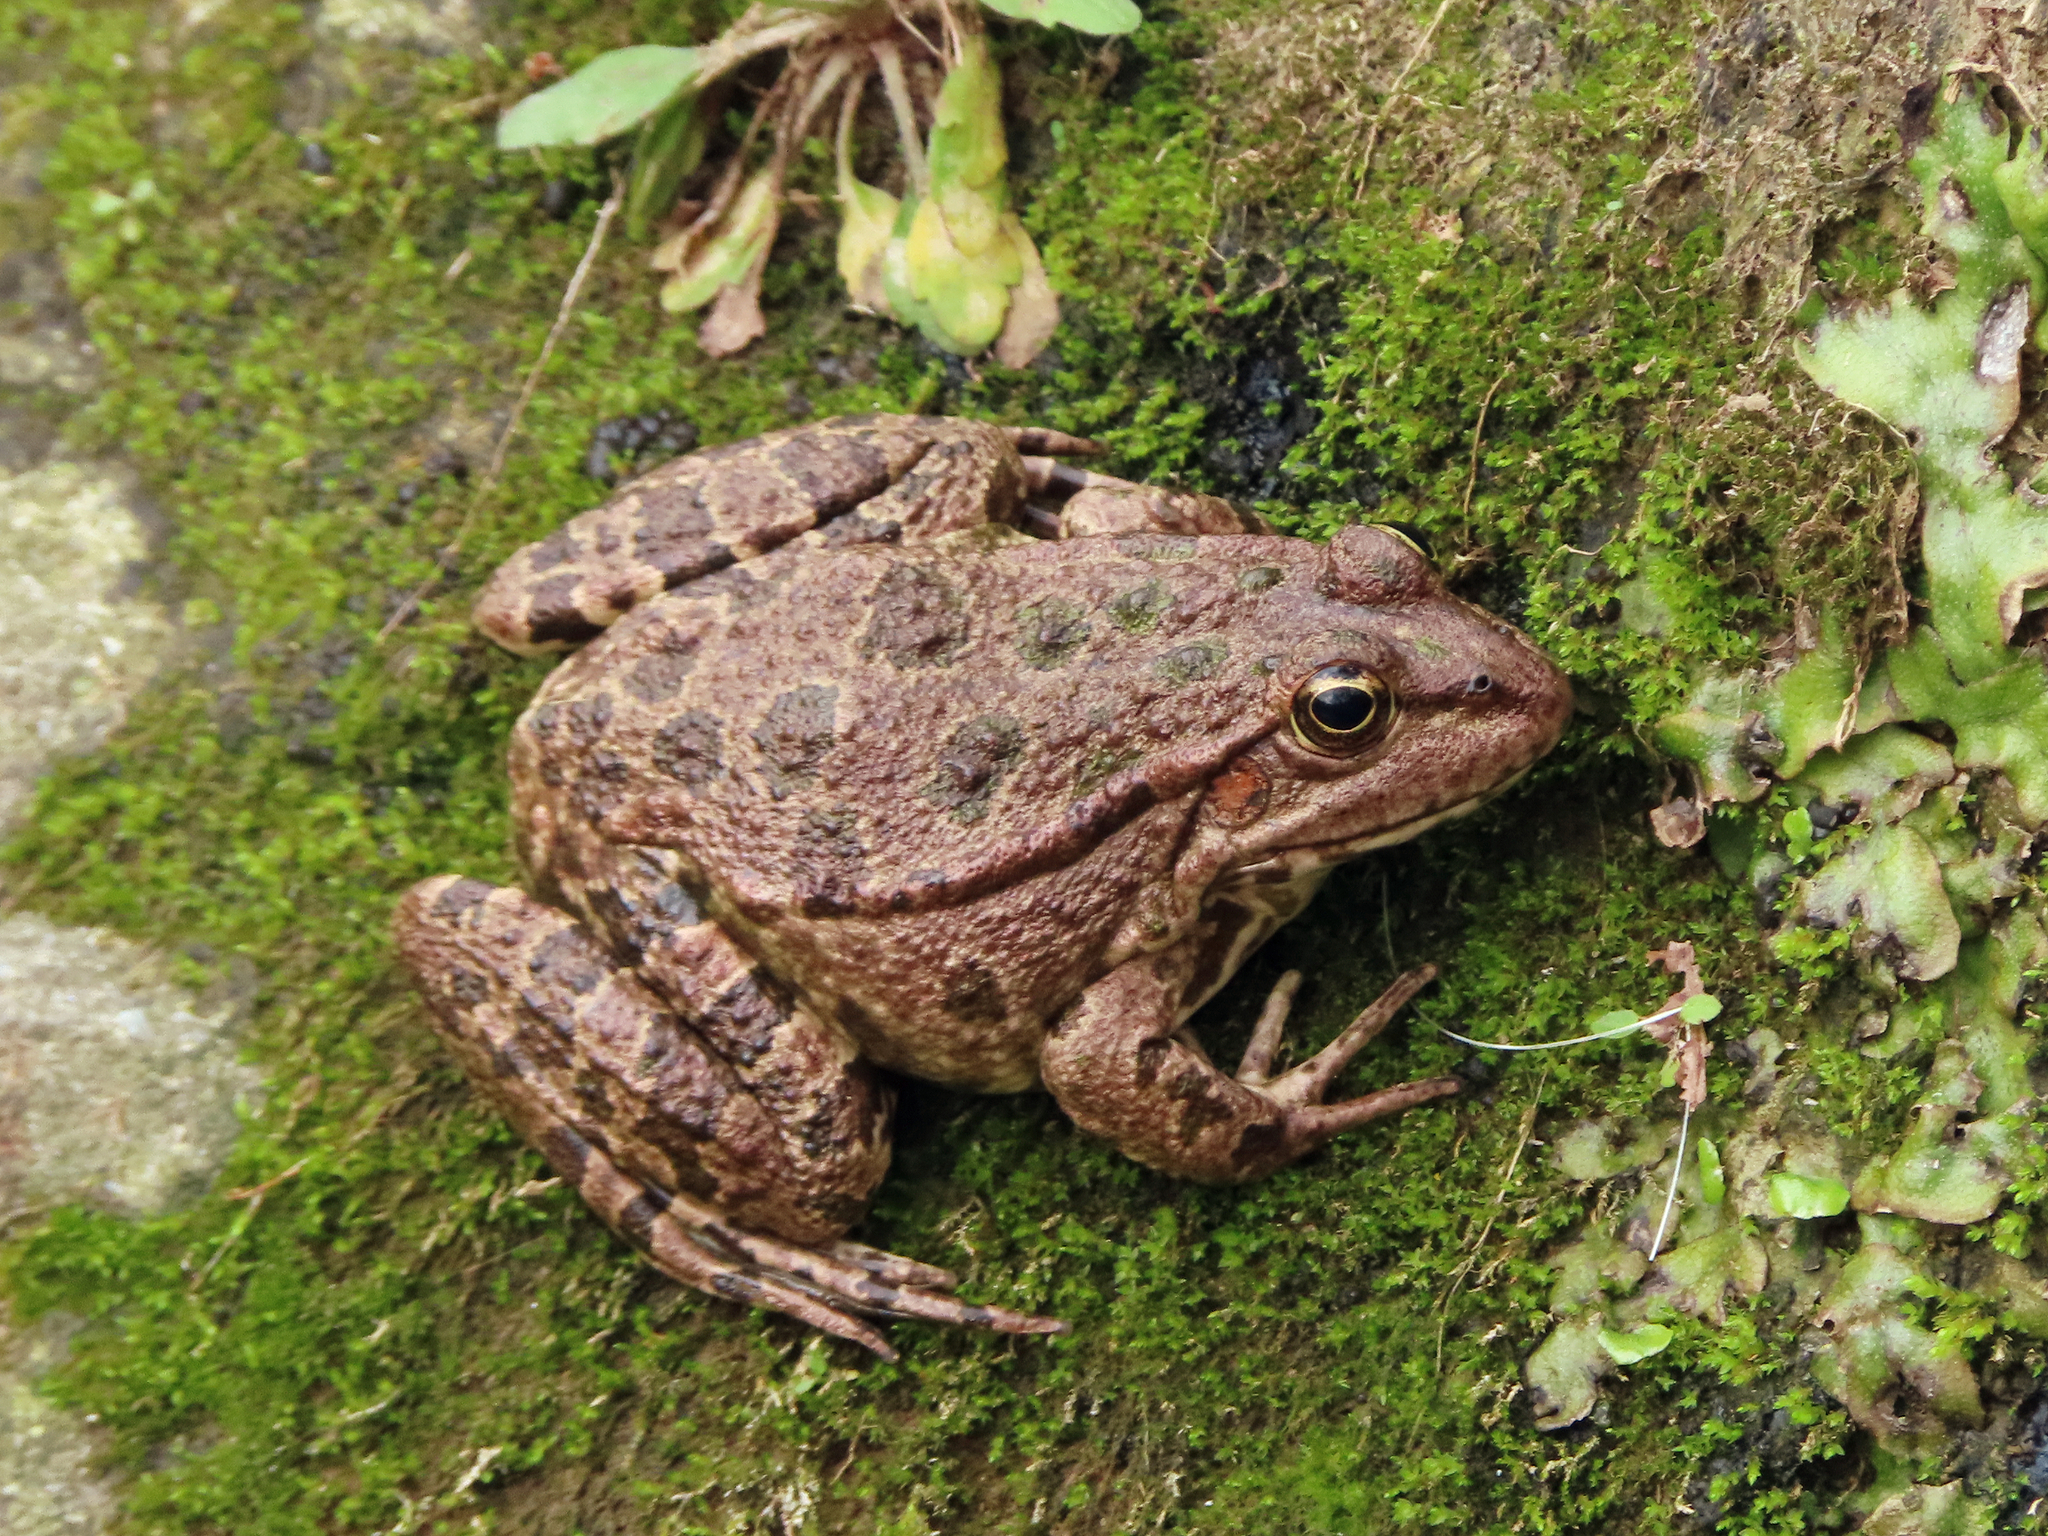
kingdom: Animalia
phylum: Chordata
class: Amphibia
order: Anura
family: Ranidae
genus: Pelophylax
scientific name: Pelophylax ridibundus
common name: Marsh frog
